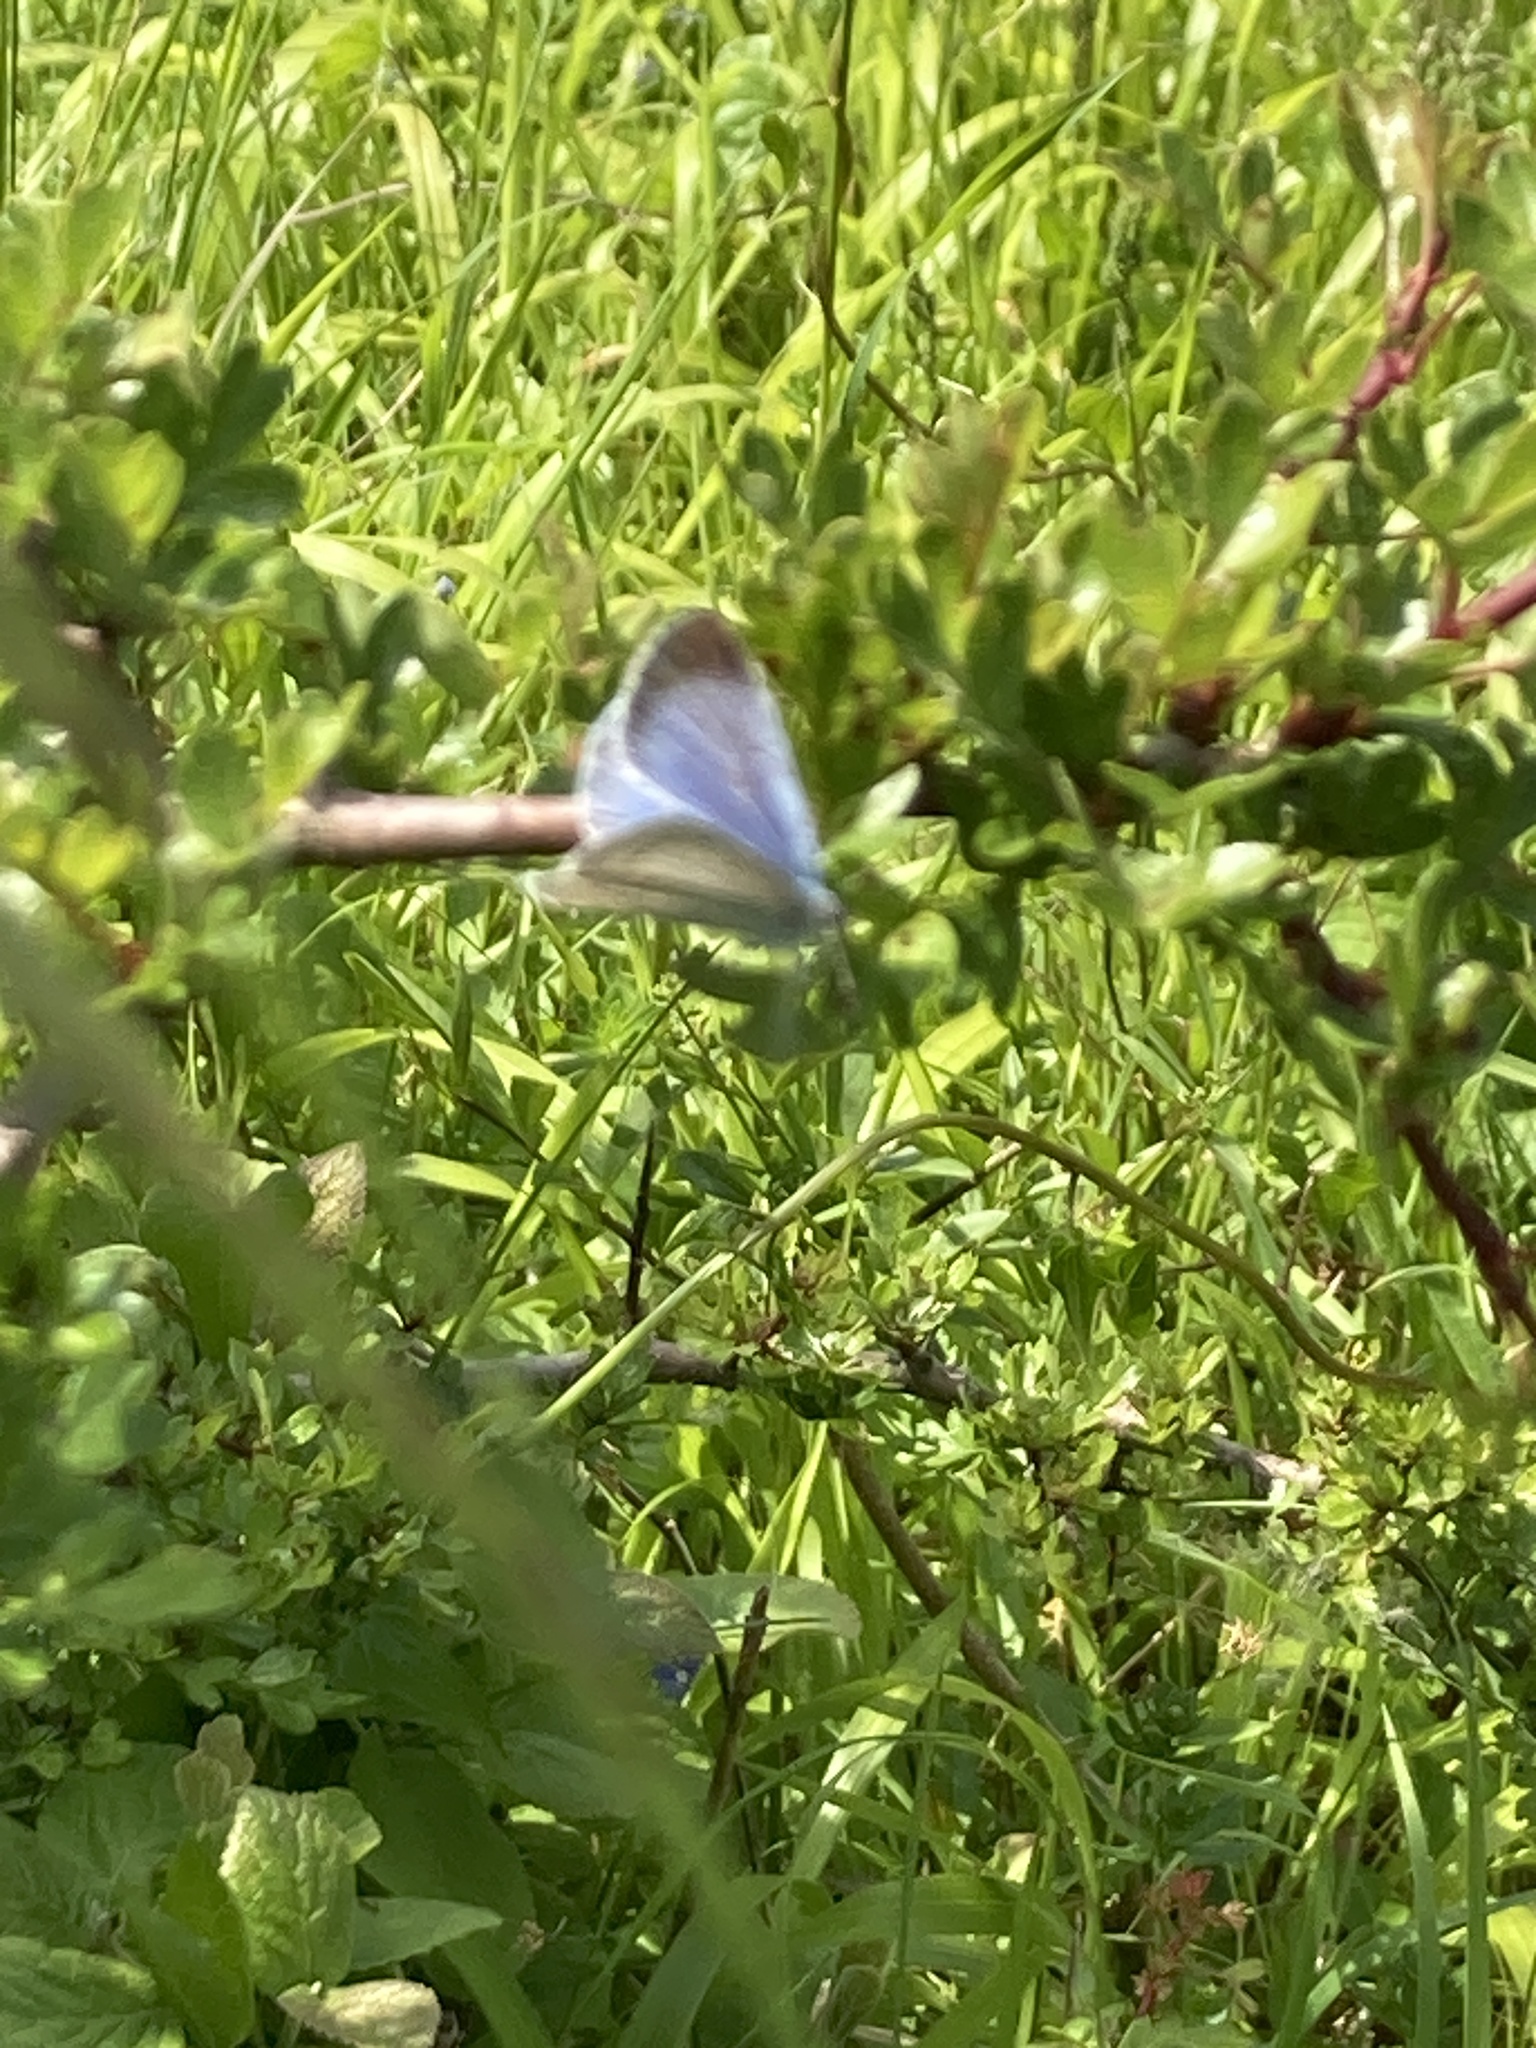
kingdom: Animalia
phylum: Arthropoda
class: Insecta
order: Lepidoptera
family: Lycaenidae
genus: Celastrina
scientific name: Celastrina argiolus
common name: Holly blue
